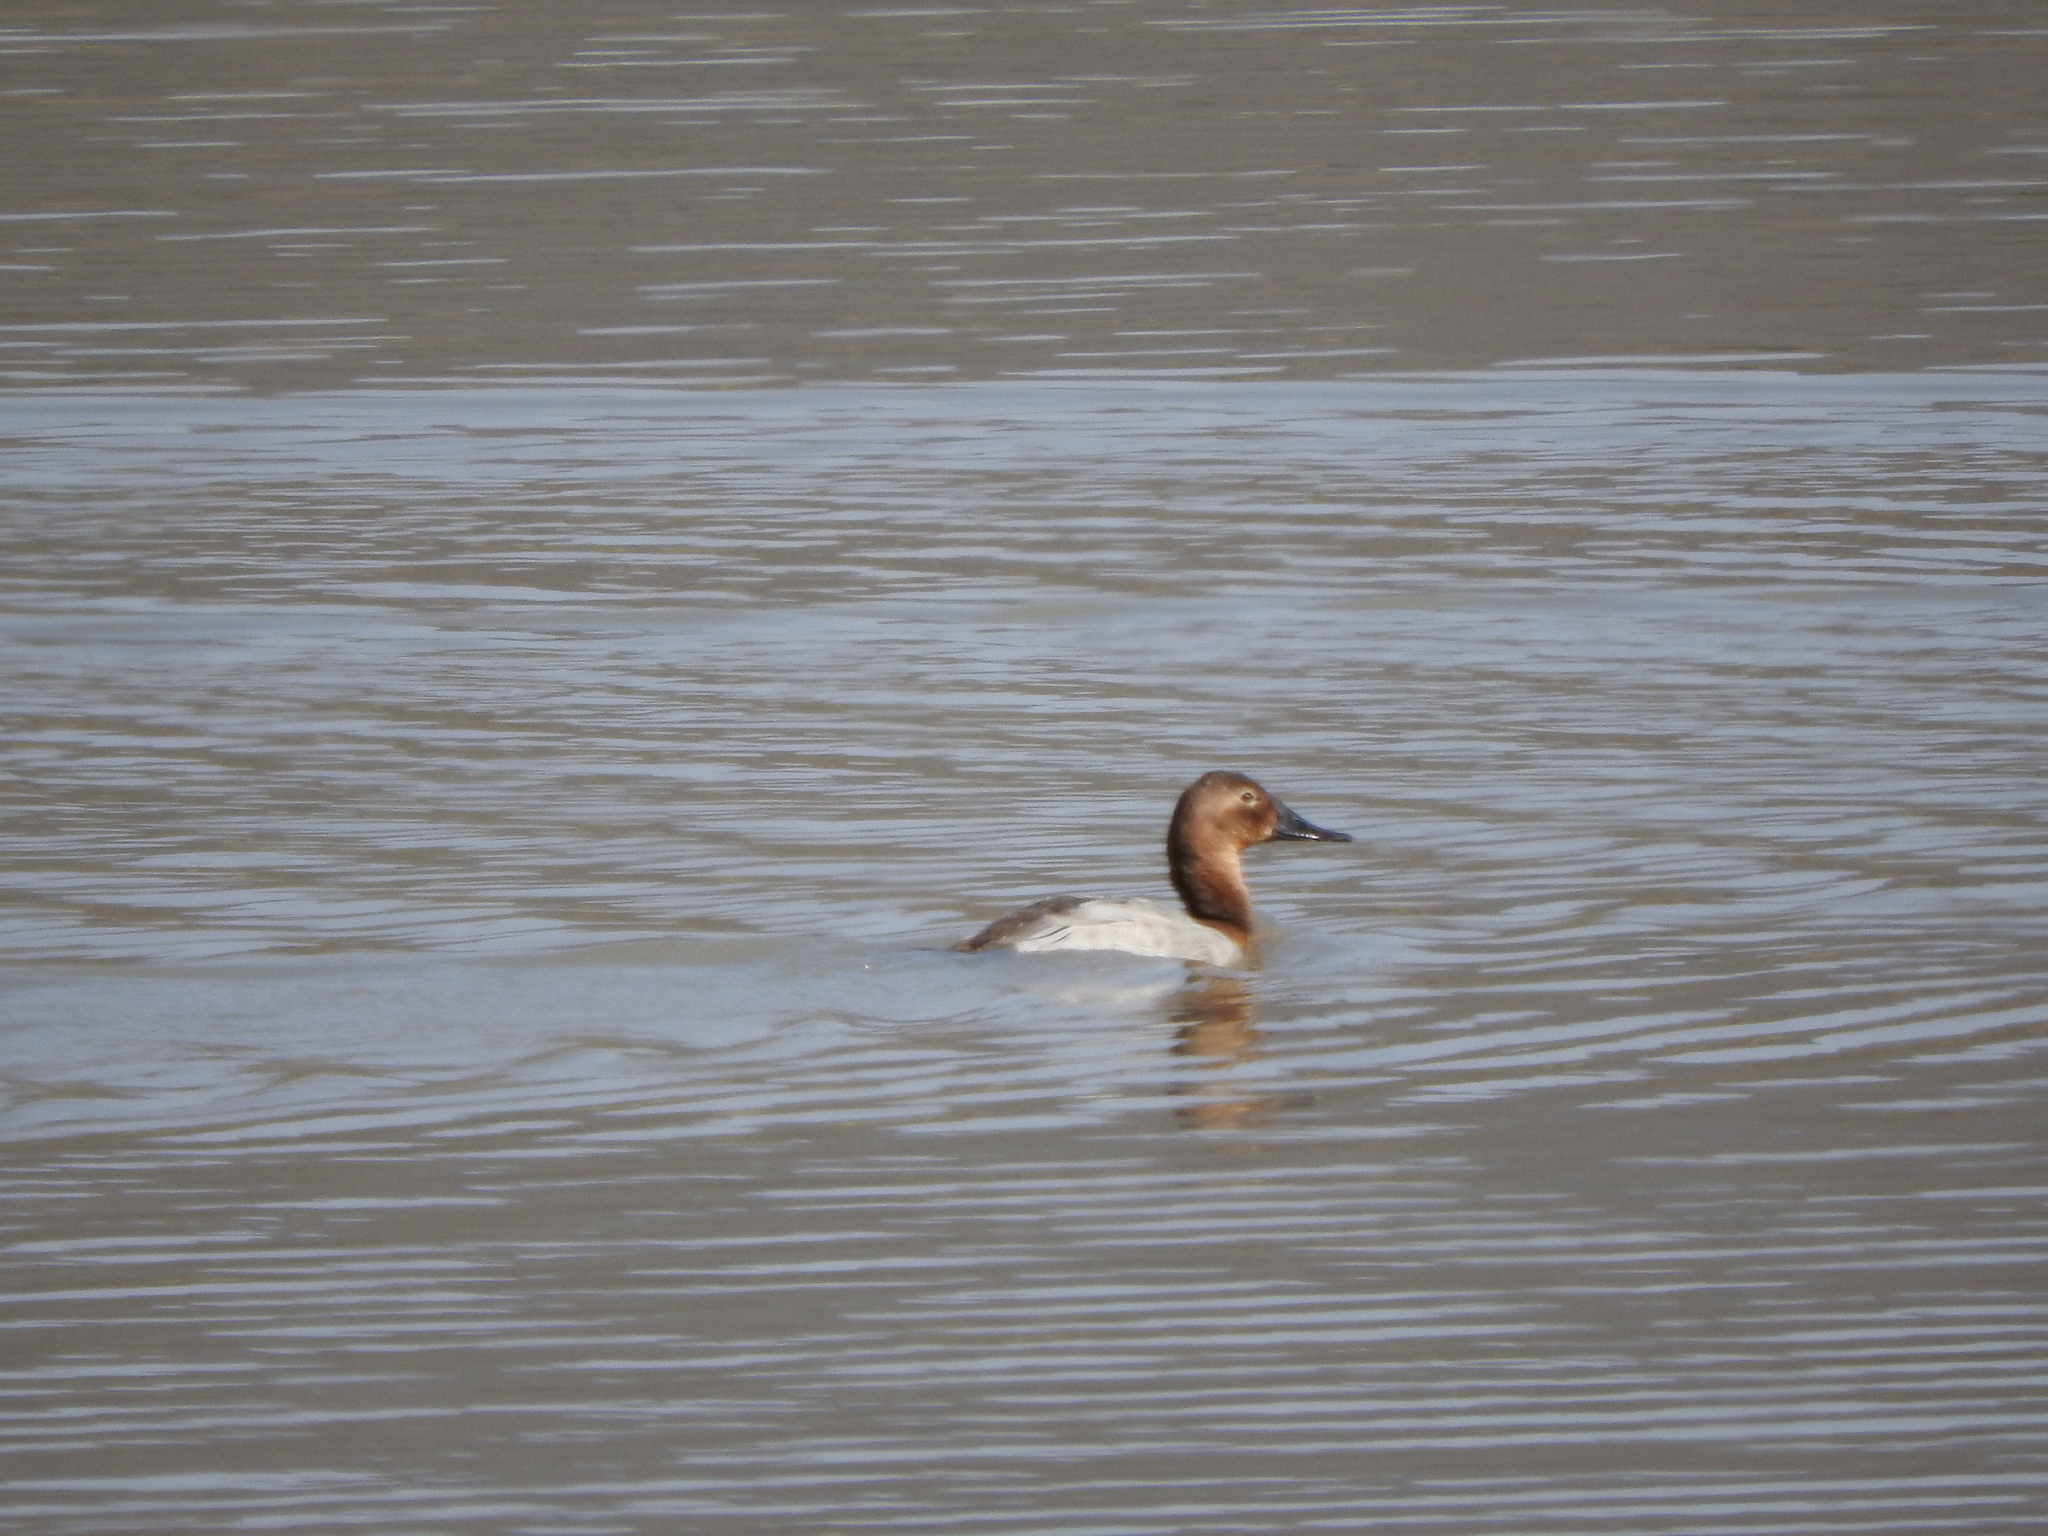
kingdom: Animalia
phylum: Chordata
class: Aves
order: Anseriformes
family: Anatidae
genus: Aythya
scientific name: Aythya valisineria
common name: Canvasback
